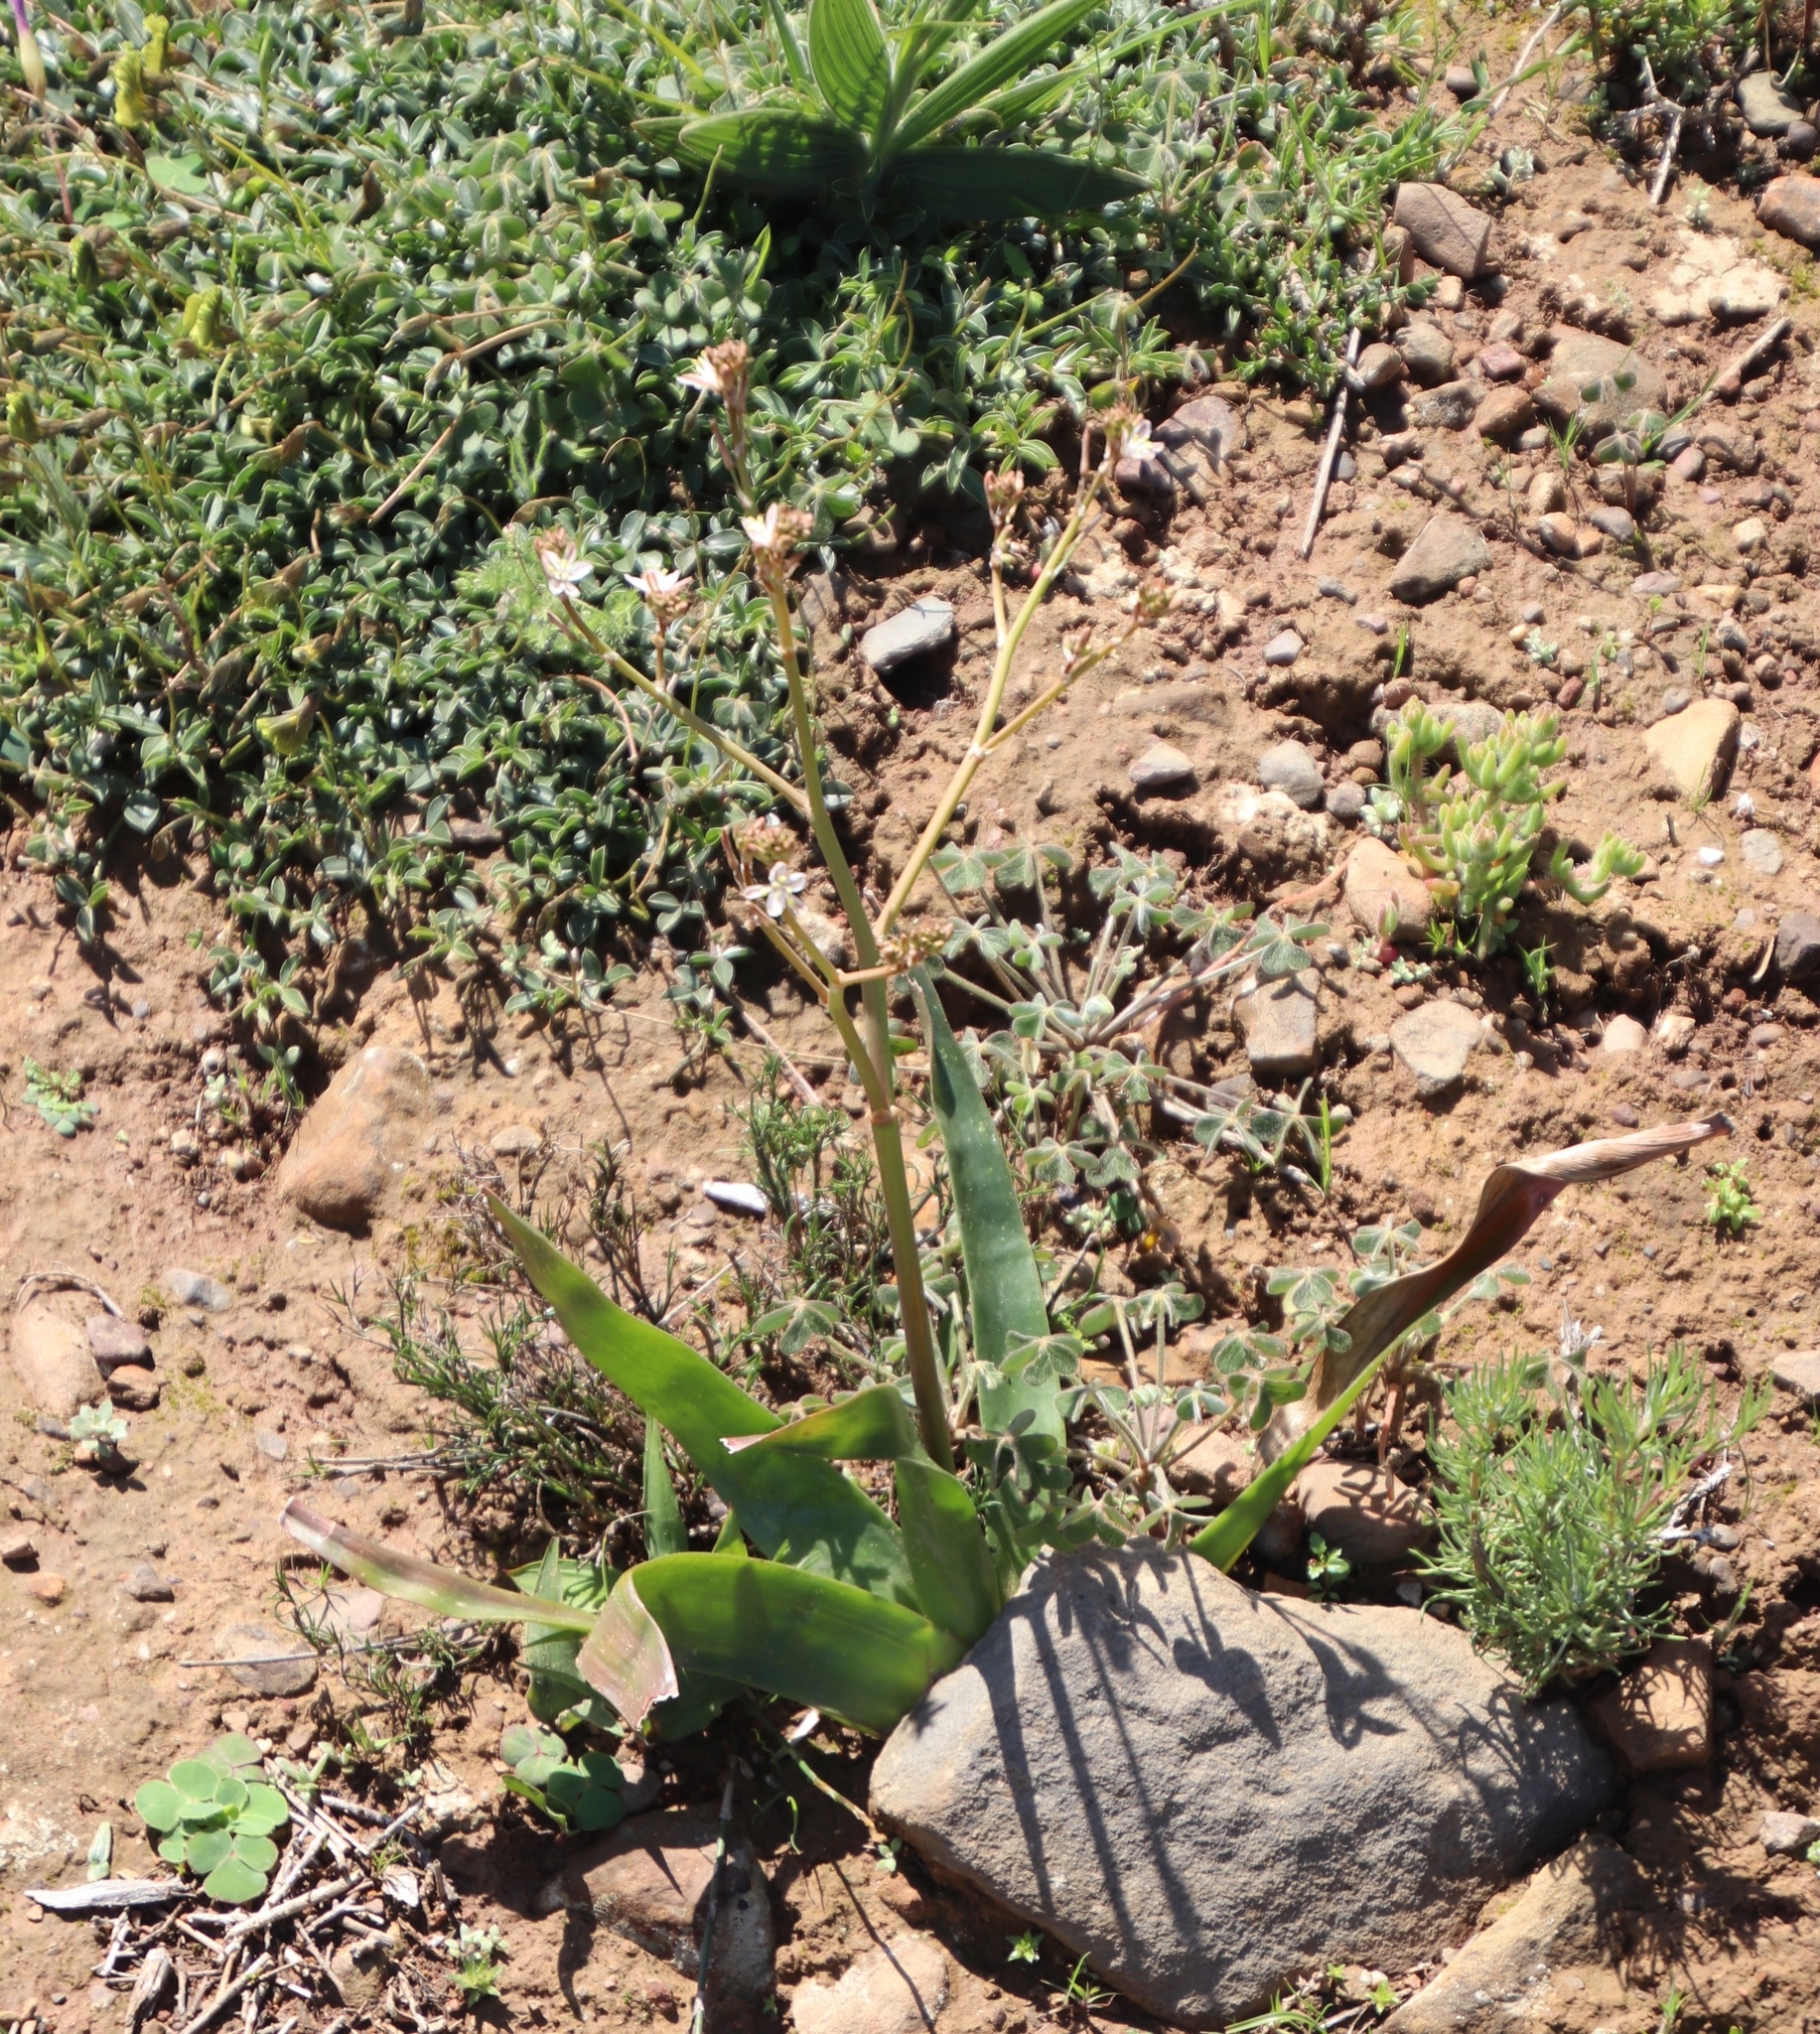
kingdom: Plantae
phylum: Tracheophyta
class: Liliopsida
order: Asparagales
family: Asphodelaceae
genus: Trachyandra
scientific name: Trachyandra muricata
